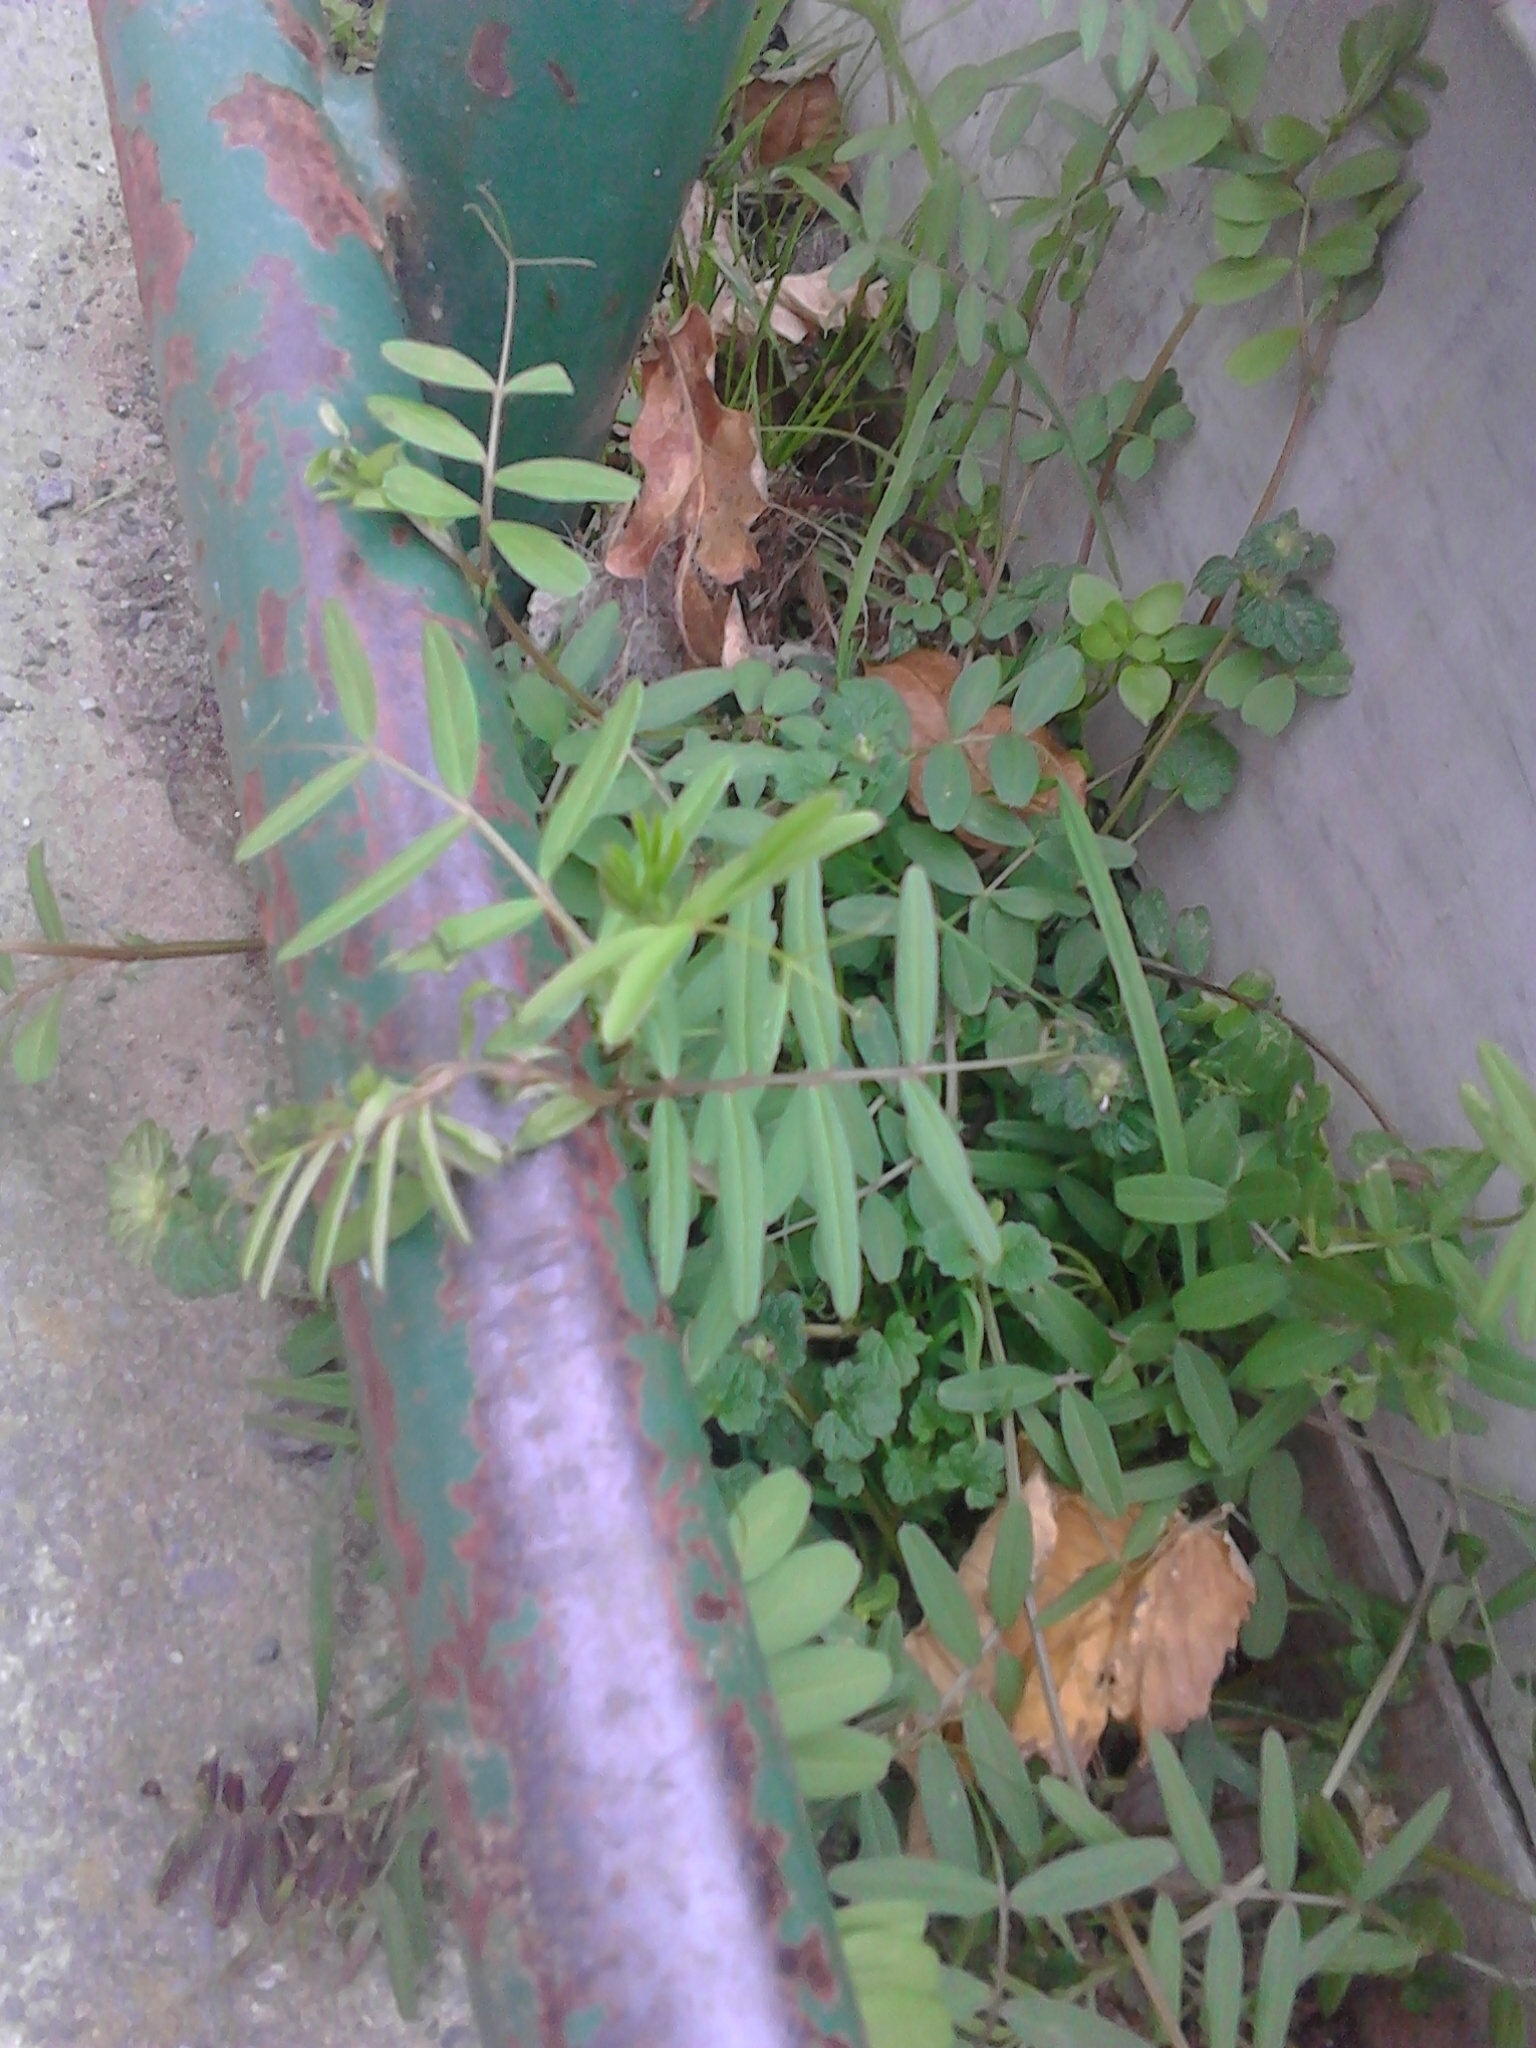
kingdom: Plantae
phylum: Tracheophyta
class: Magnoliopsida
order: Fabales
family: Fabaceae
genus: Vicia
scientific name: Vicia sativa
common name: Garden vetch
